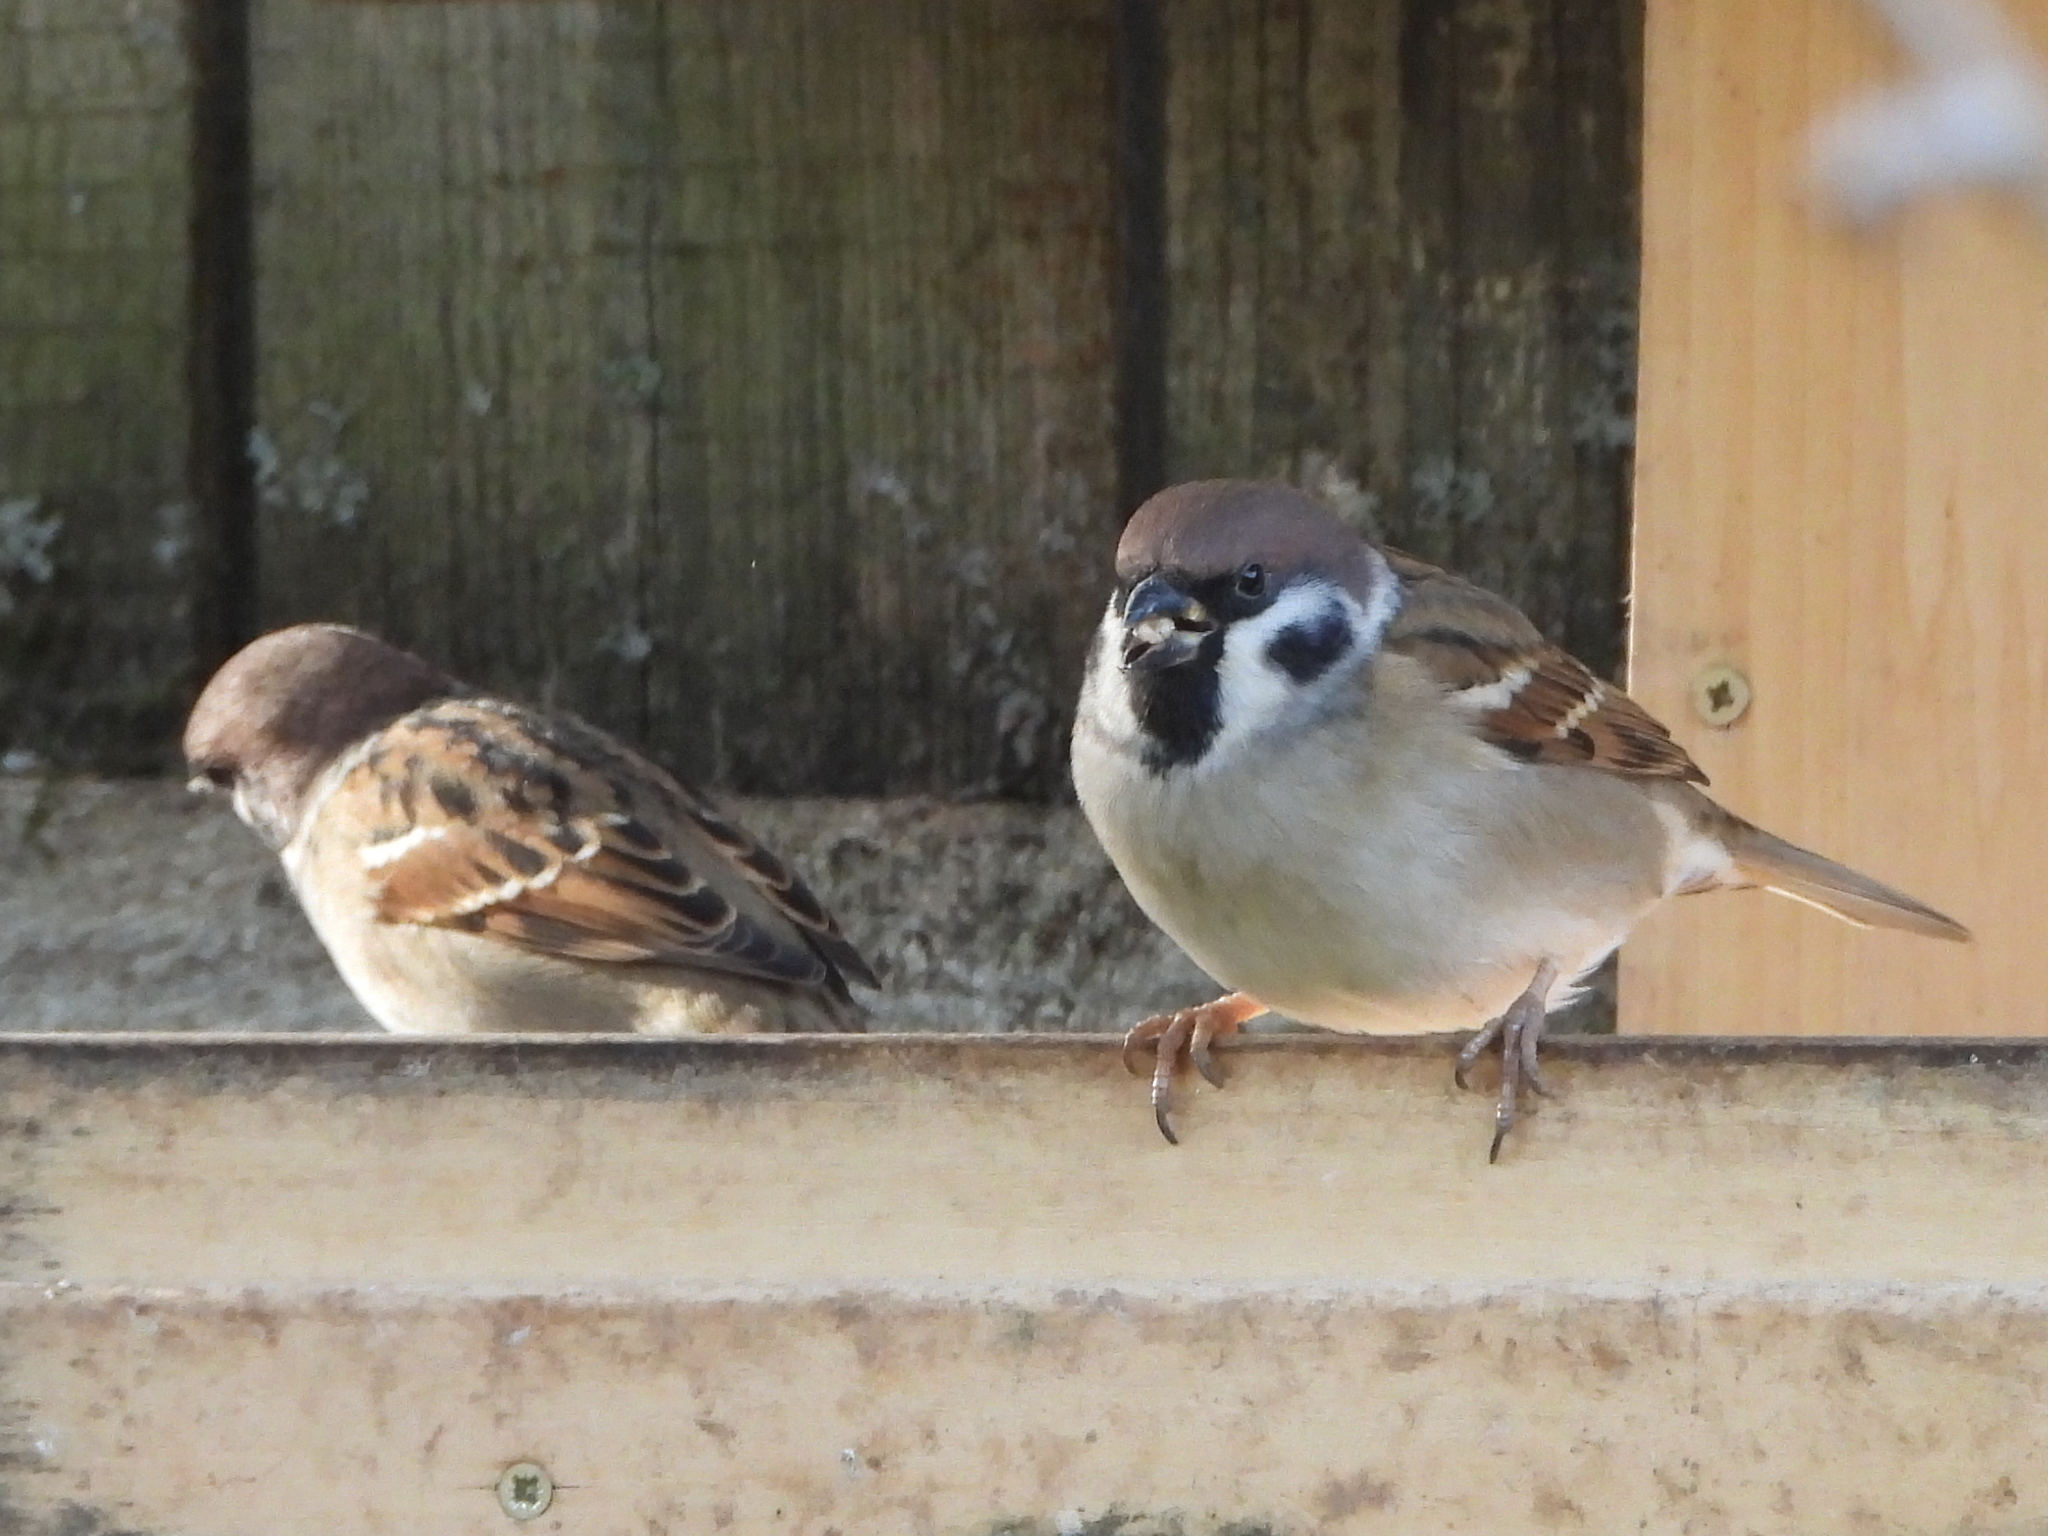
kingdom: Animalia
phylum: Chordata
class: Aves
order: Passeriformes
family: Passeridae
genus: Passer
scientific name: Passer montanus
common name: Eurasian tree sparrow
